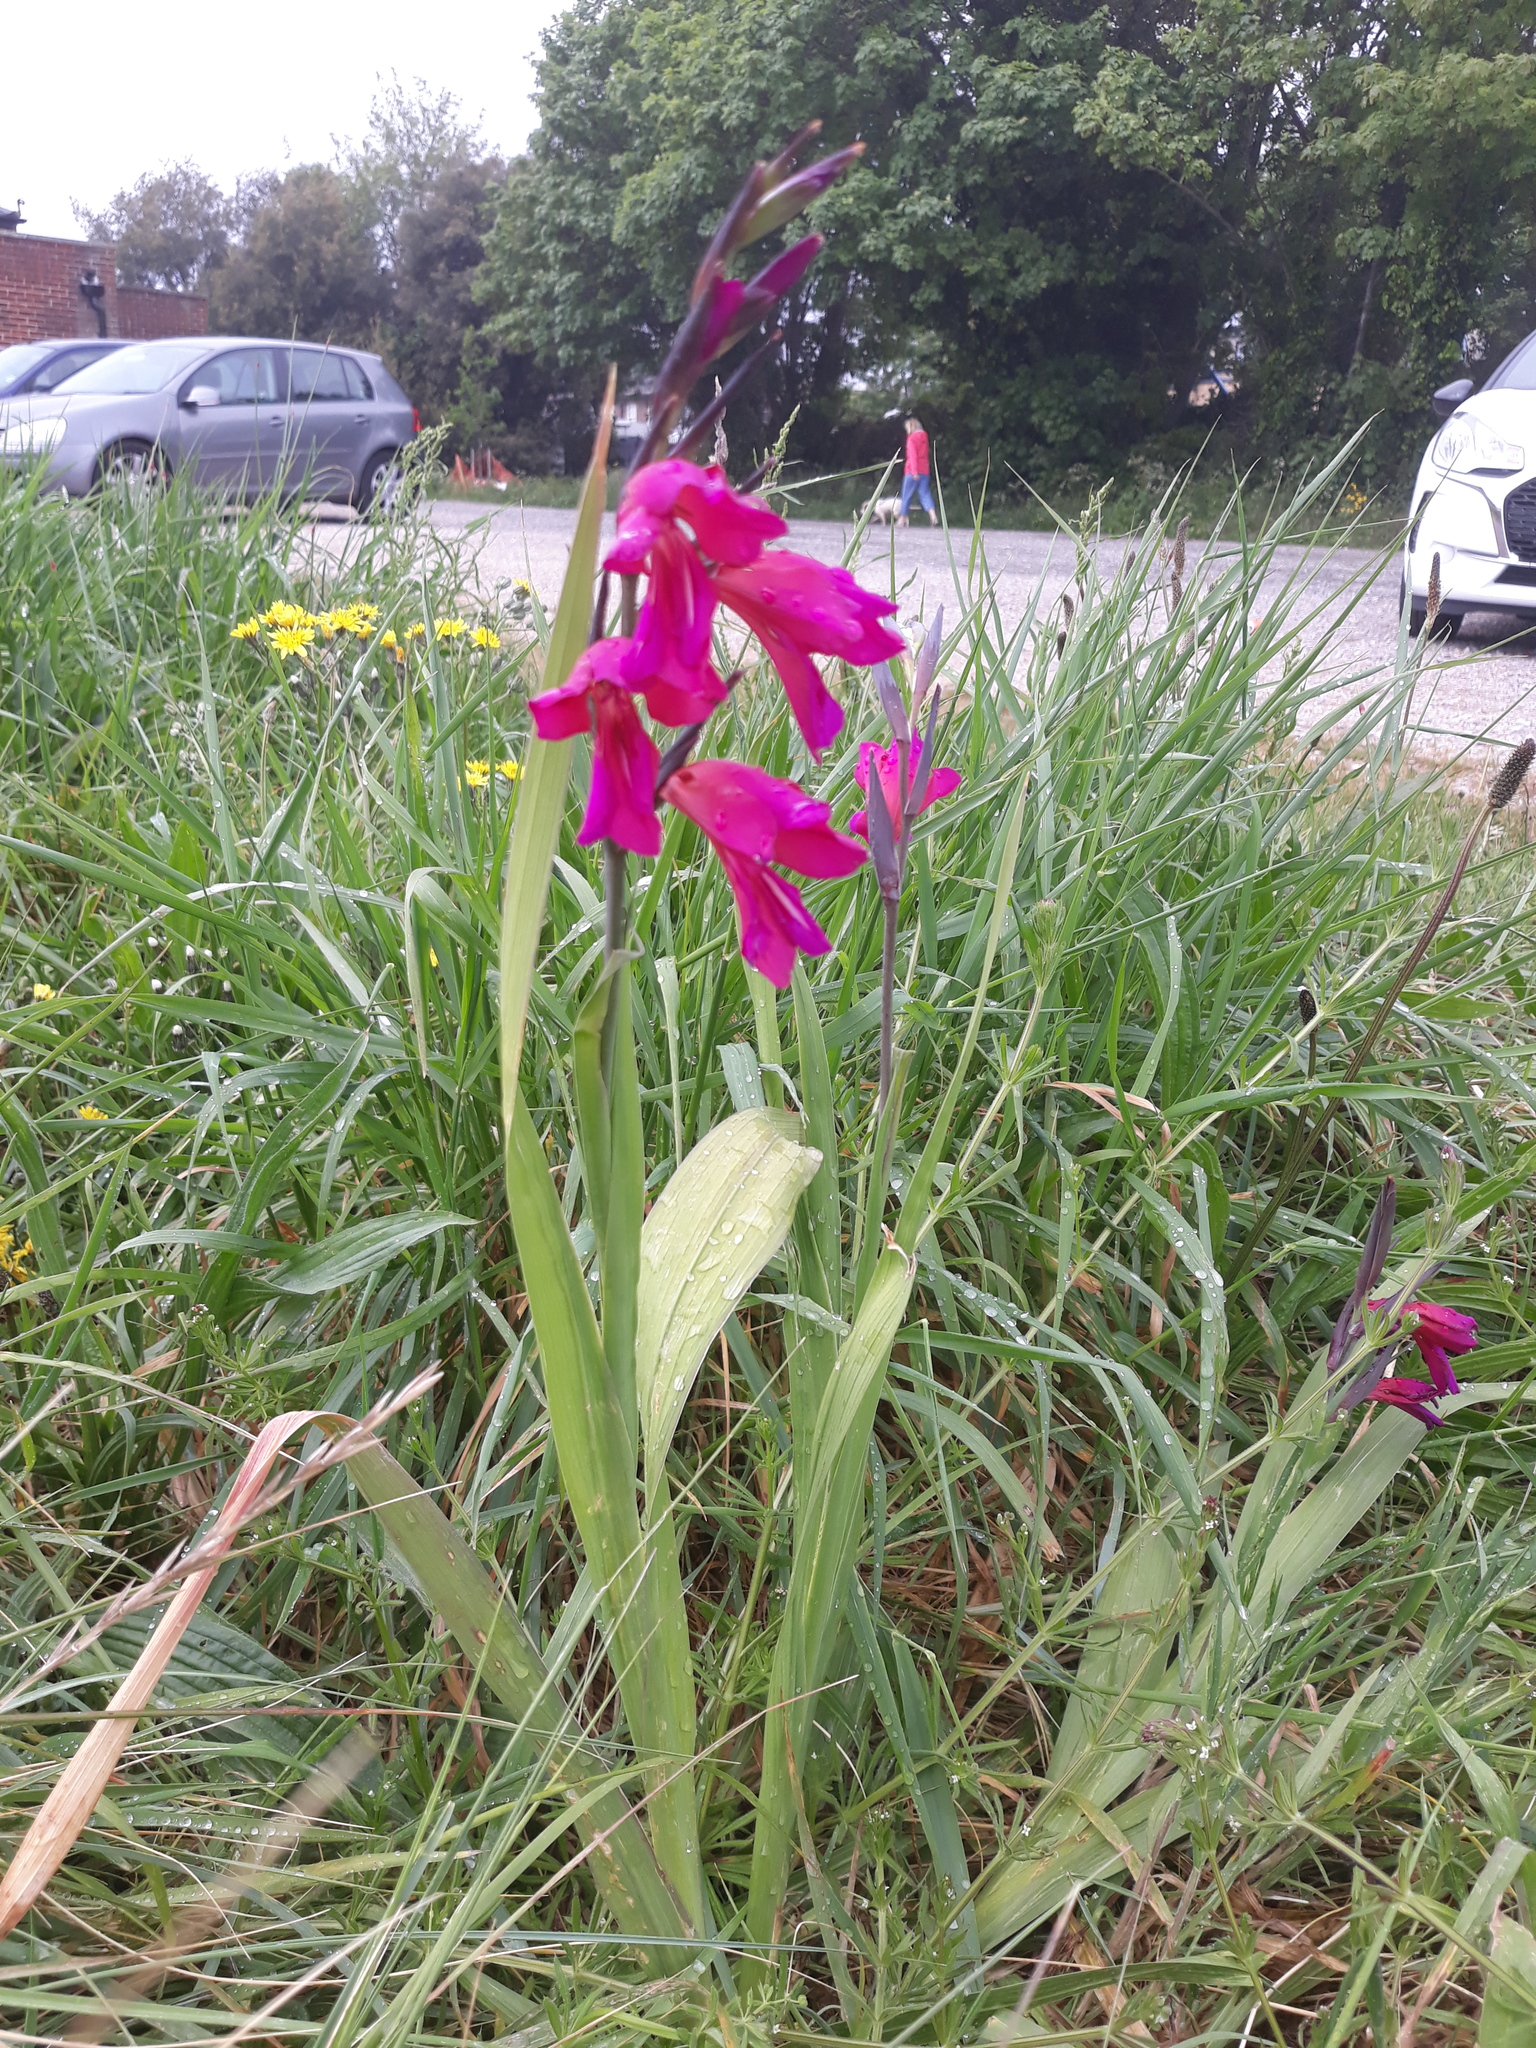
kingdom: Plantae
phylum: Tracheophyta
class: Liliopsida
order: Asparagales
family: Iridaceae
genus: Gladiolus
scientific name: Gladiolus byzantinus
